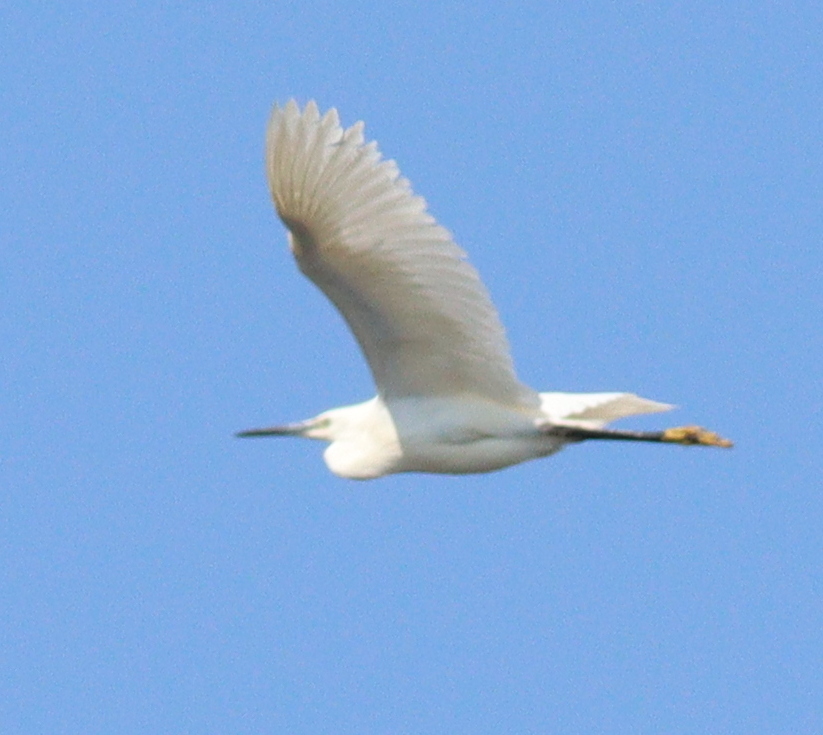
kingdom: Animalia
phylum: Chordata
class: Aves
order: Pelecaniformes
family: Ardeidae
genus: Egretta
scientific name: Egretta garzetta
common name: Little egret
